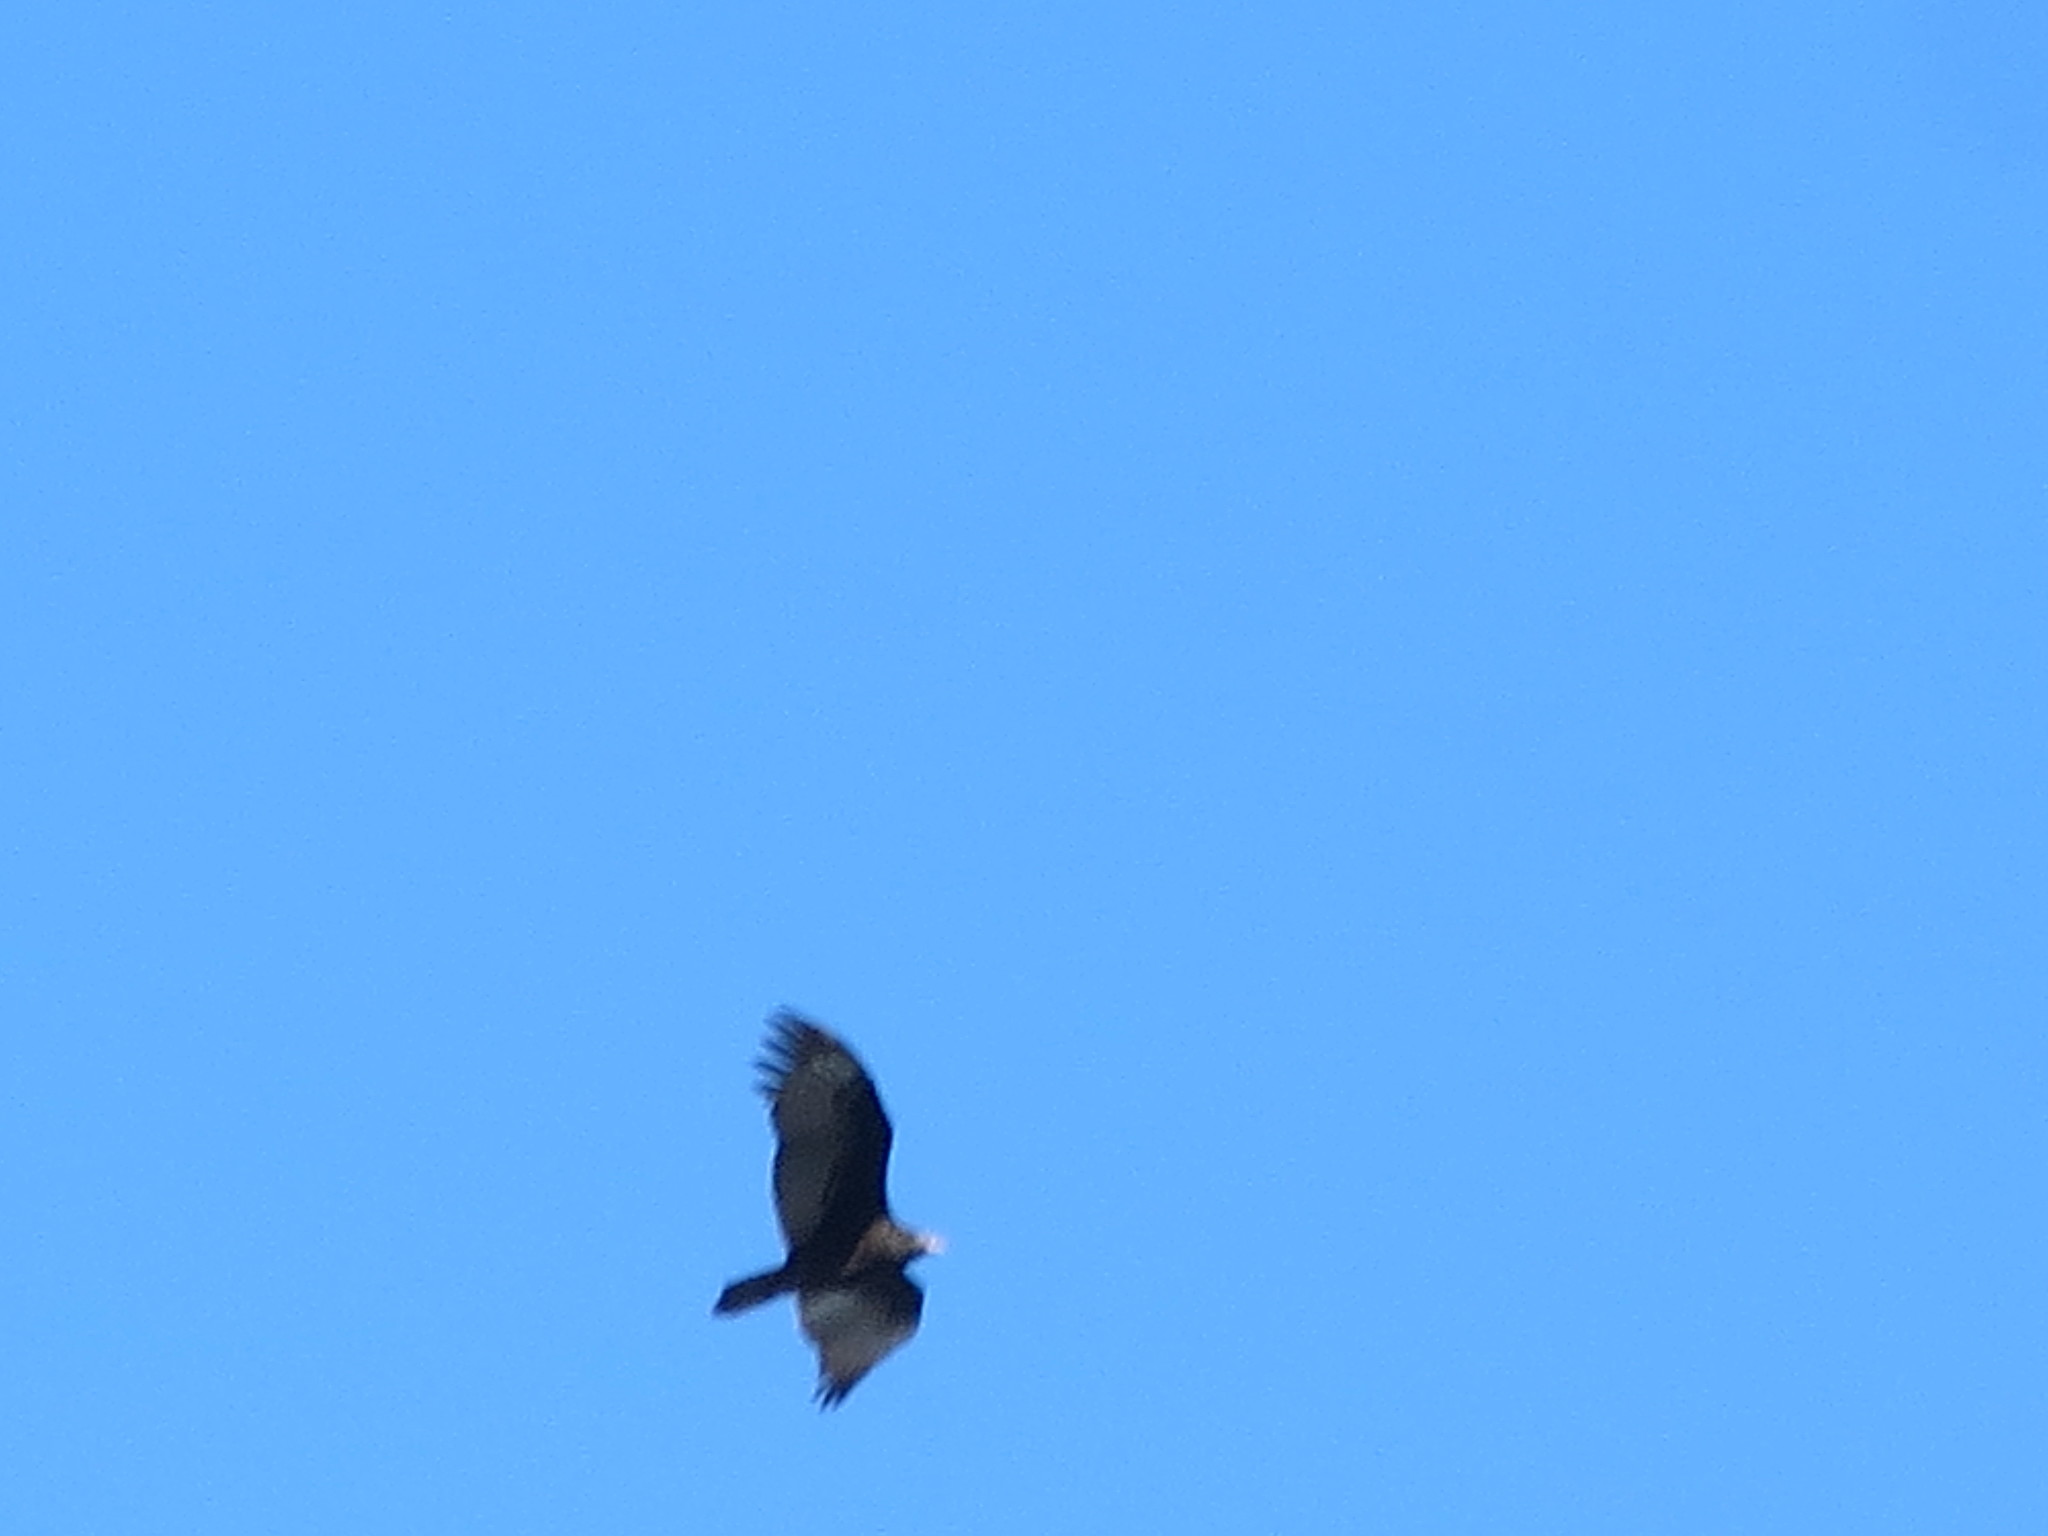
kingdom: Animalia
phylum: Chordata
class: Aves
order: Accipitriformes
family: Cathartidae
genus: Cathartes
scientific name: Cathartes aura
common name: Turkey vulture
